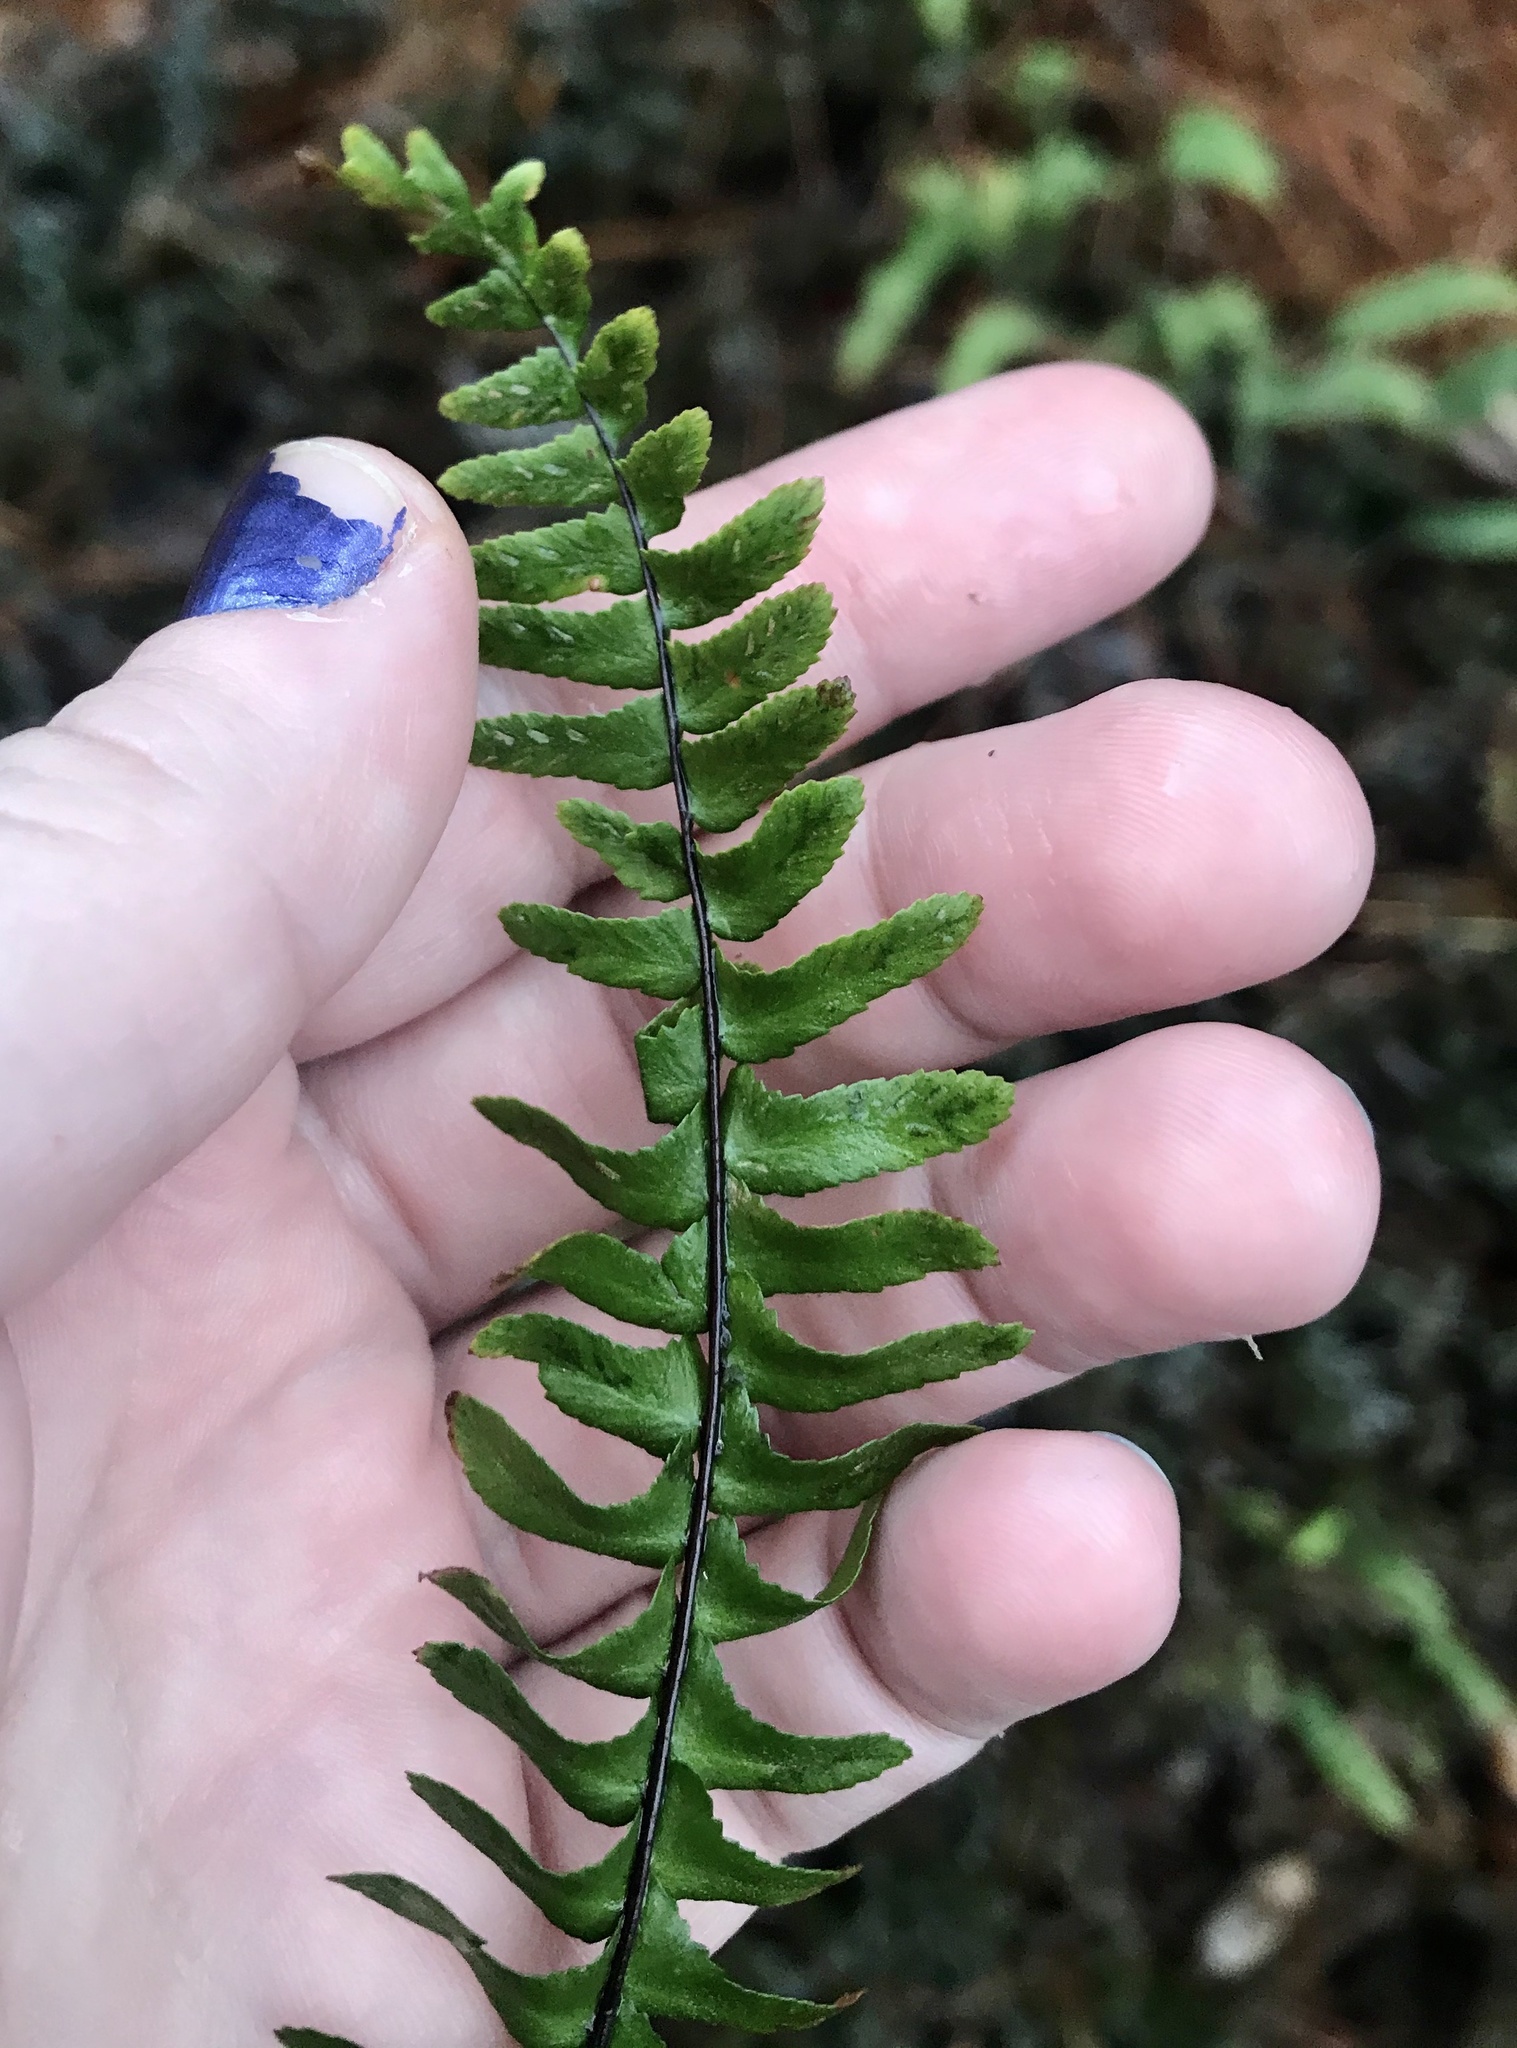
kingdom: Plantae
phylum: Tracheophyta
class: Polypodiopsida
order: Polypodiales
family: Aspleniaceae
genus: Asplenium
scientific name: Asplenium platyneuron
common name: Ebony spleenwort
